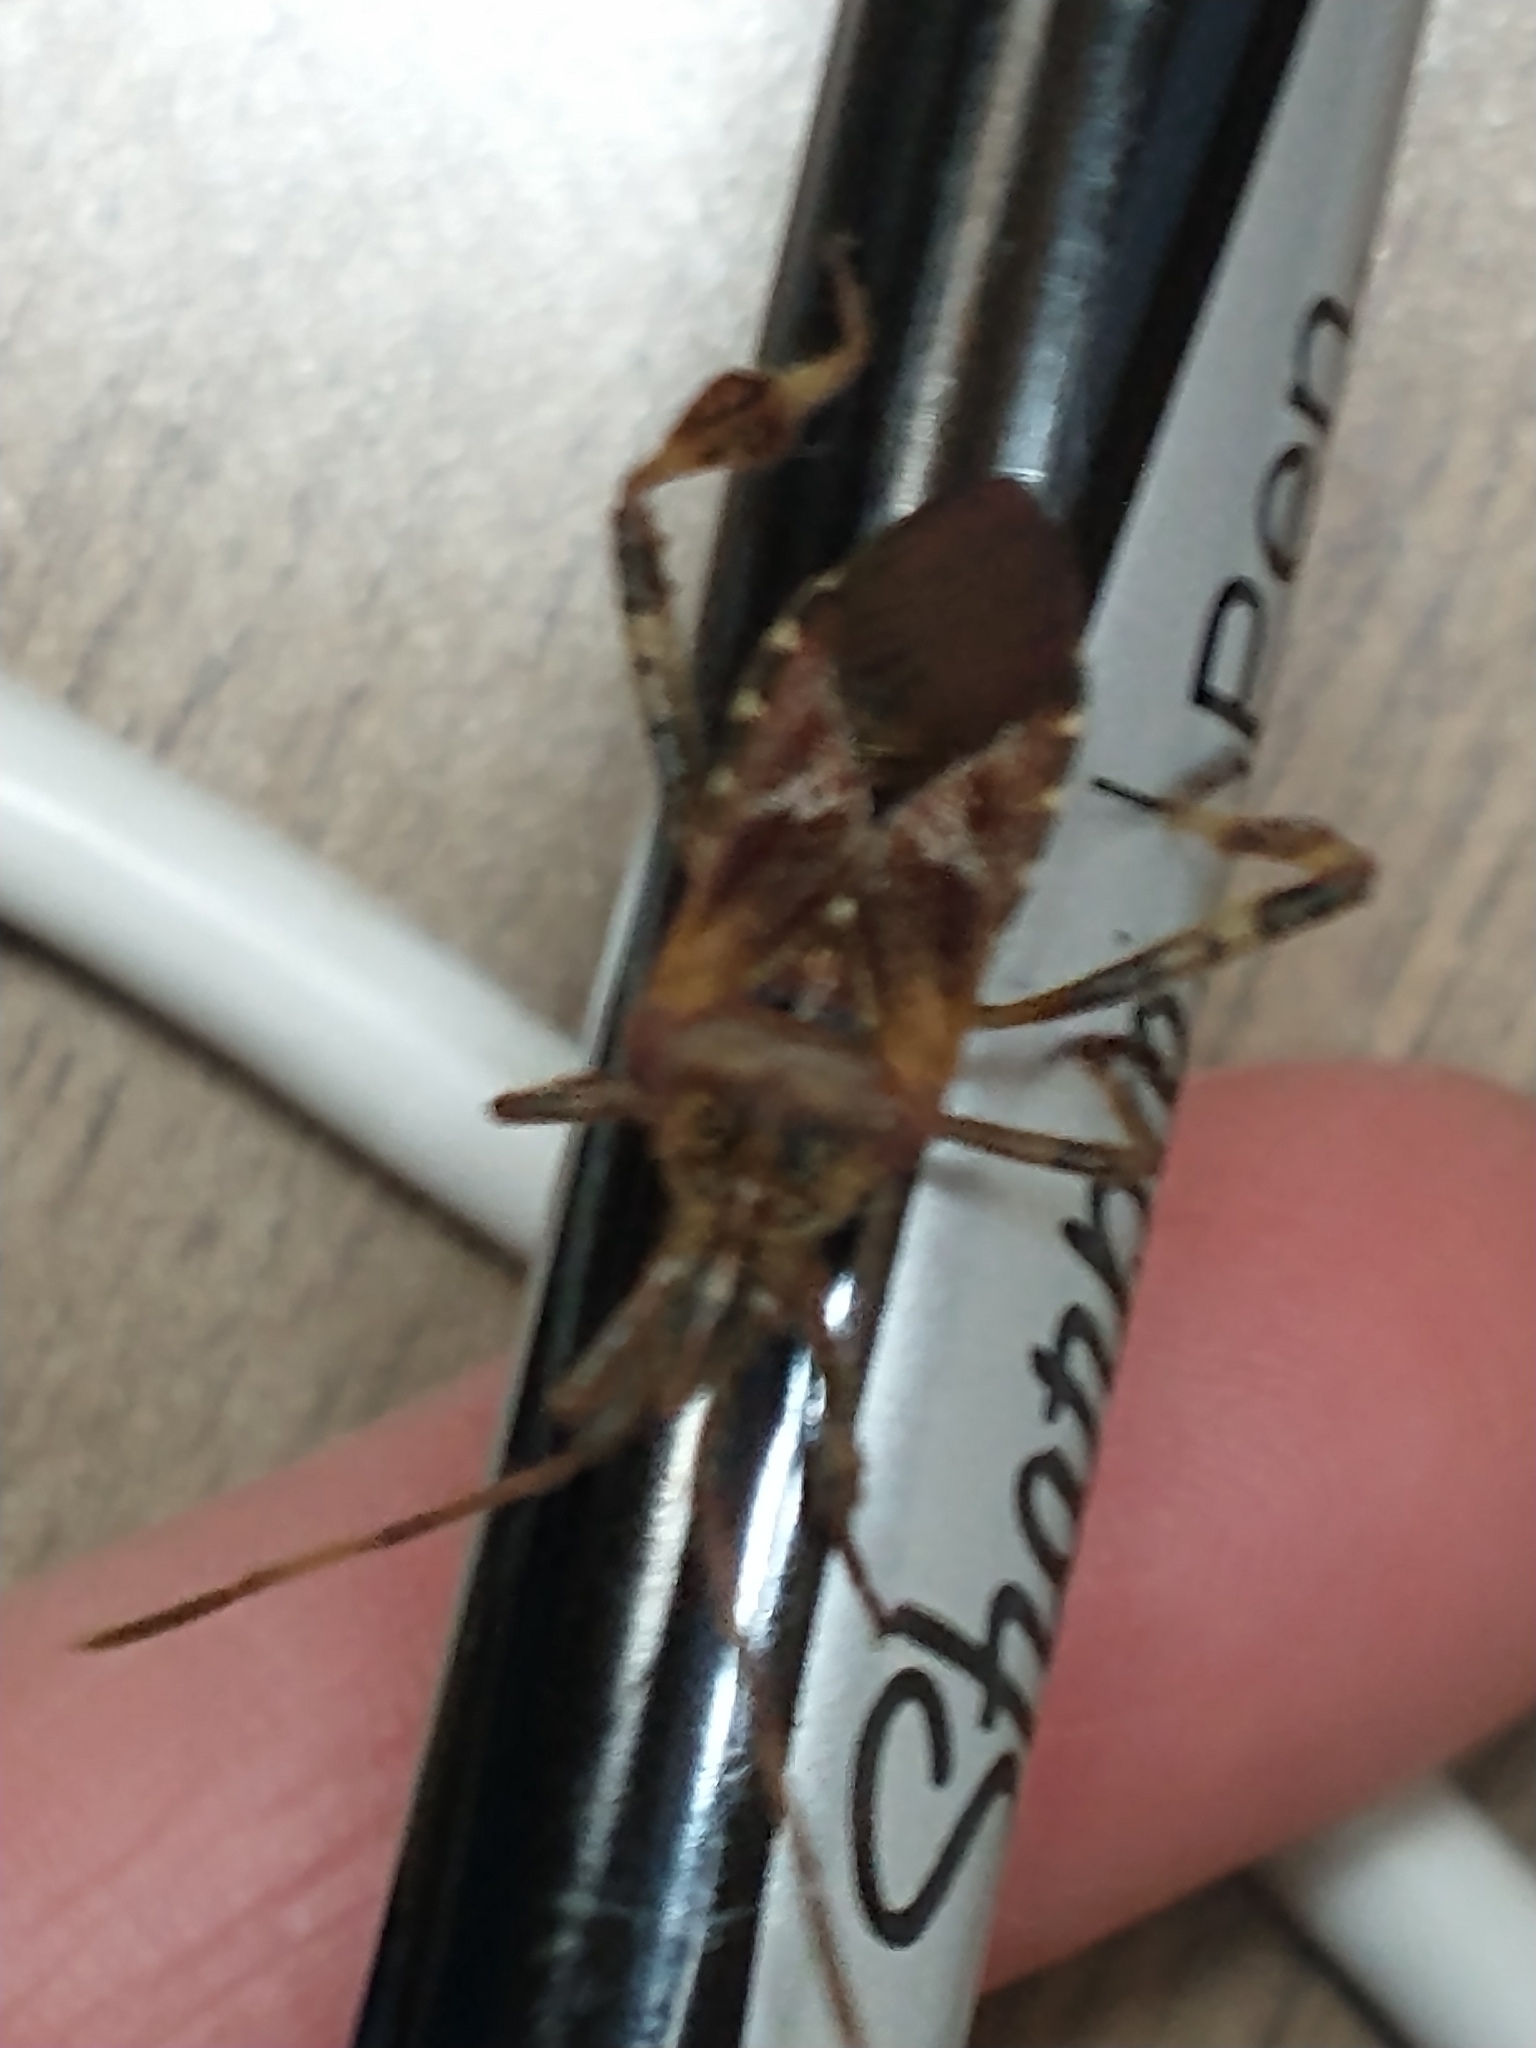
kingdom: Animalia
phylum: Arthropoda
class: Insecta
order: Hemiptera
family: Coreidae
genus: Leptoglossus
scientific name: Leptoglossus occidentalis
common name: Western conifer-seed bug
